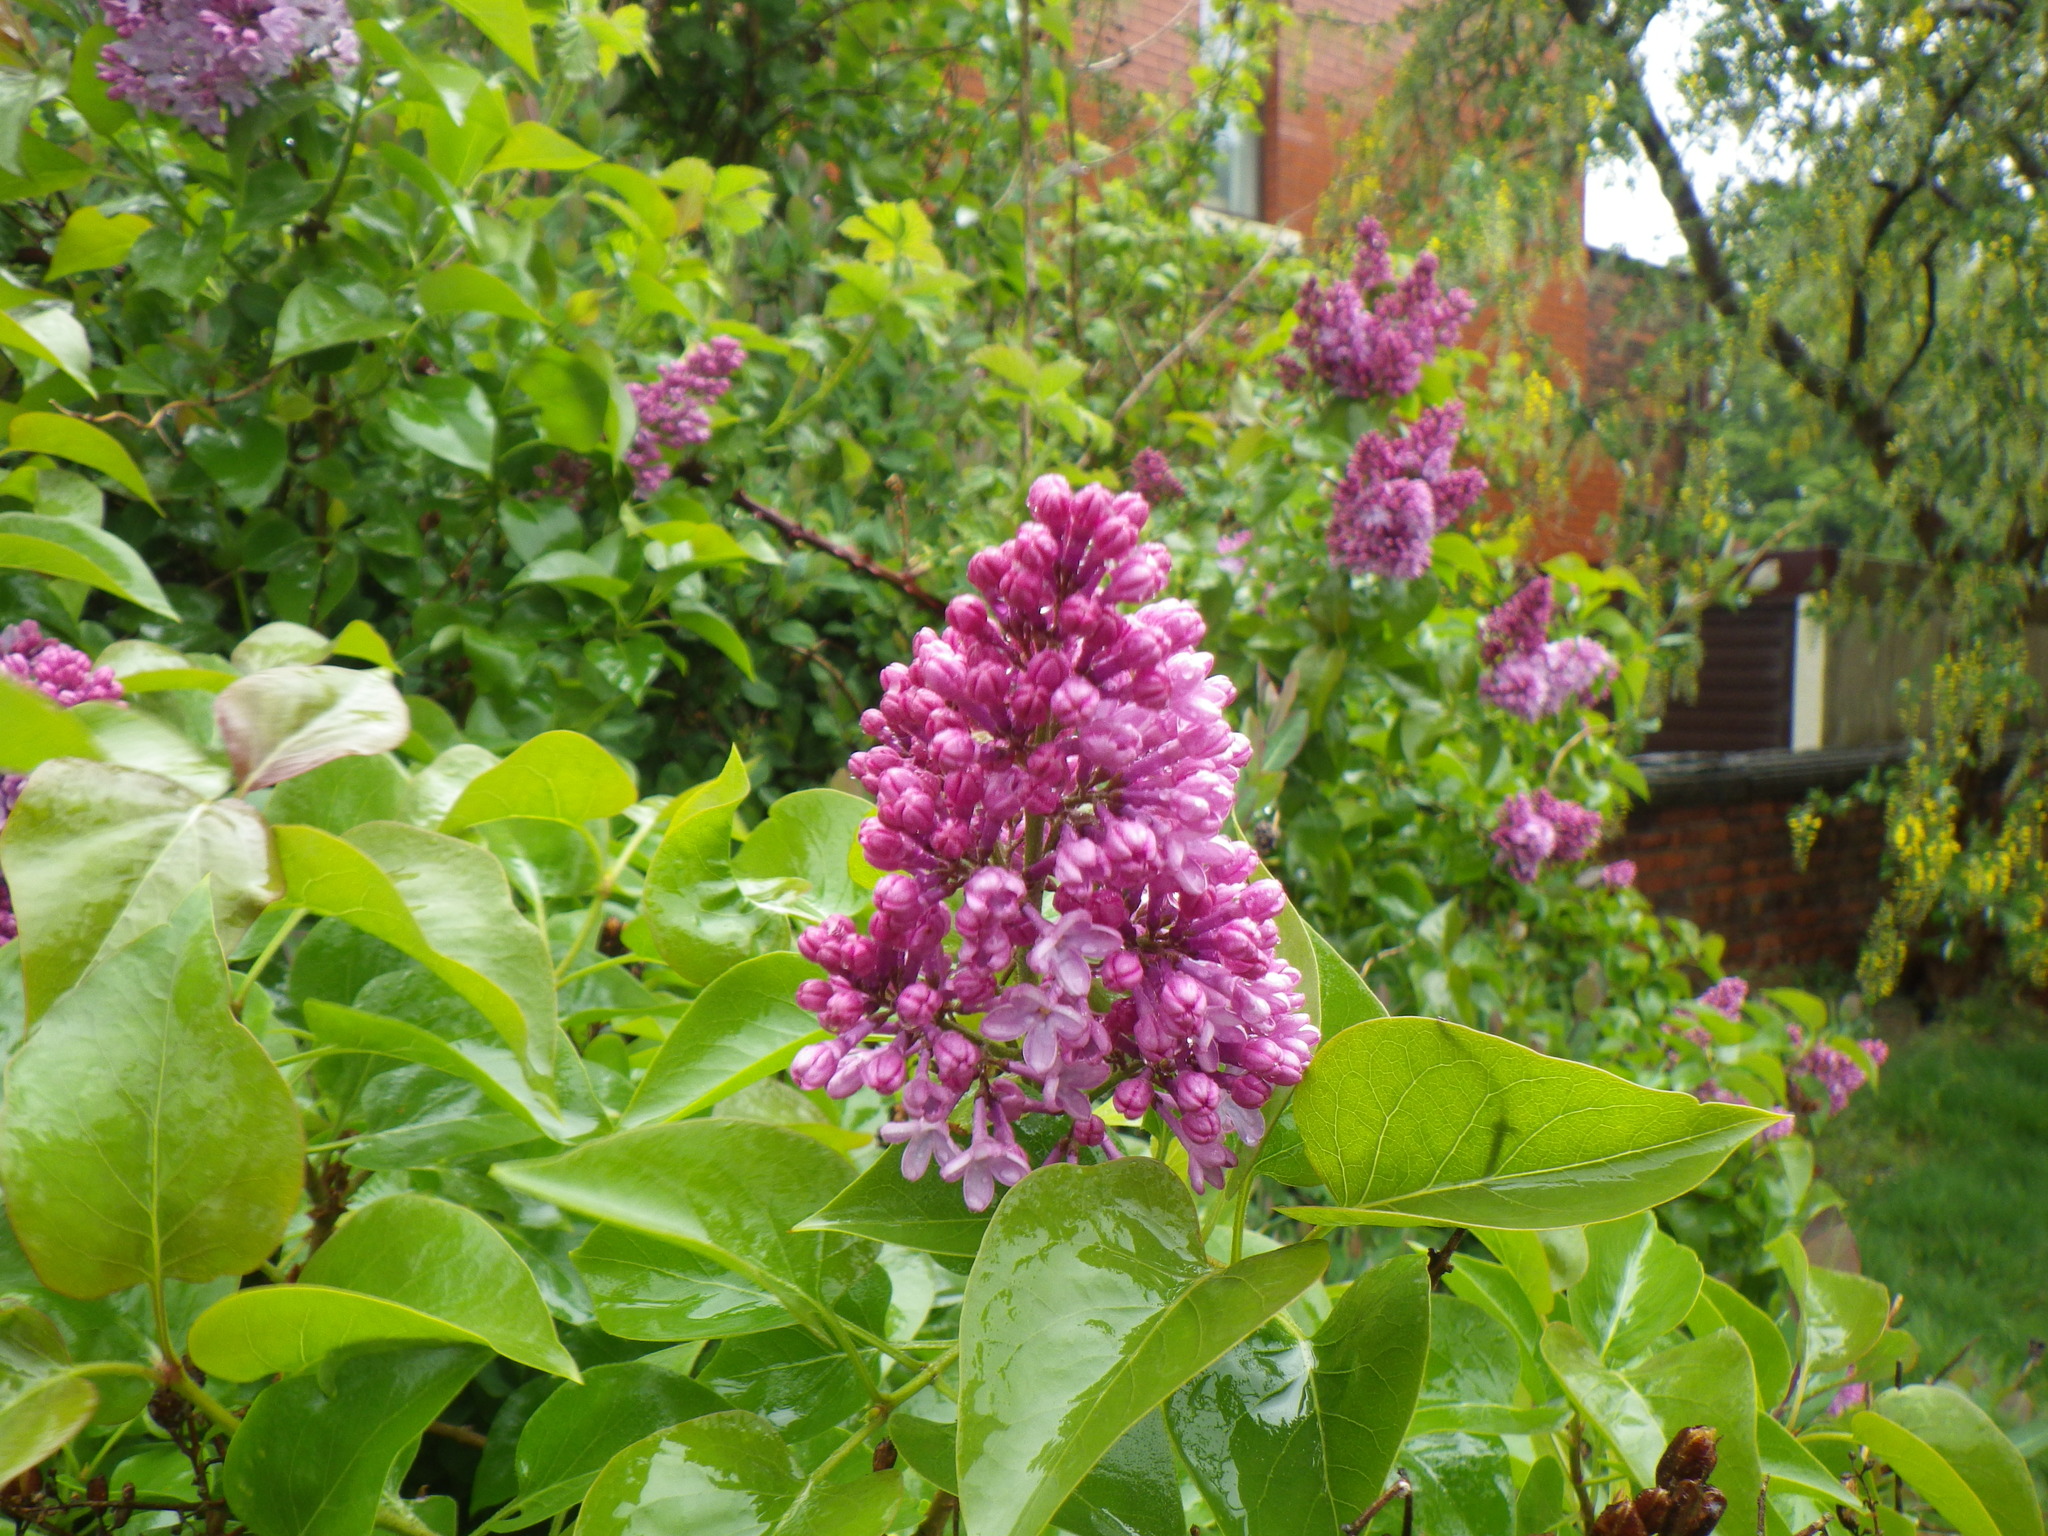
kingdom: Plantae
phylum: Tracheophyta
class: Magnoliopsida
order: Lamiales
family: Oleaceae
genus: Syringa
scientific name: Syringa vulgaris
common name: Common lilac
